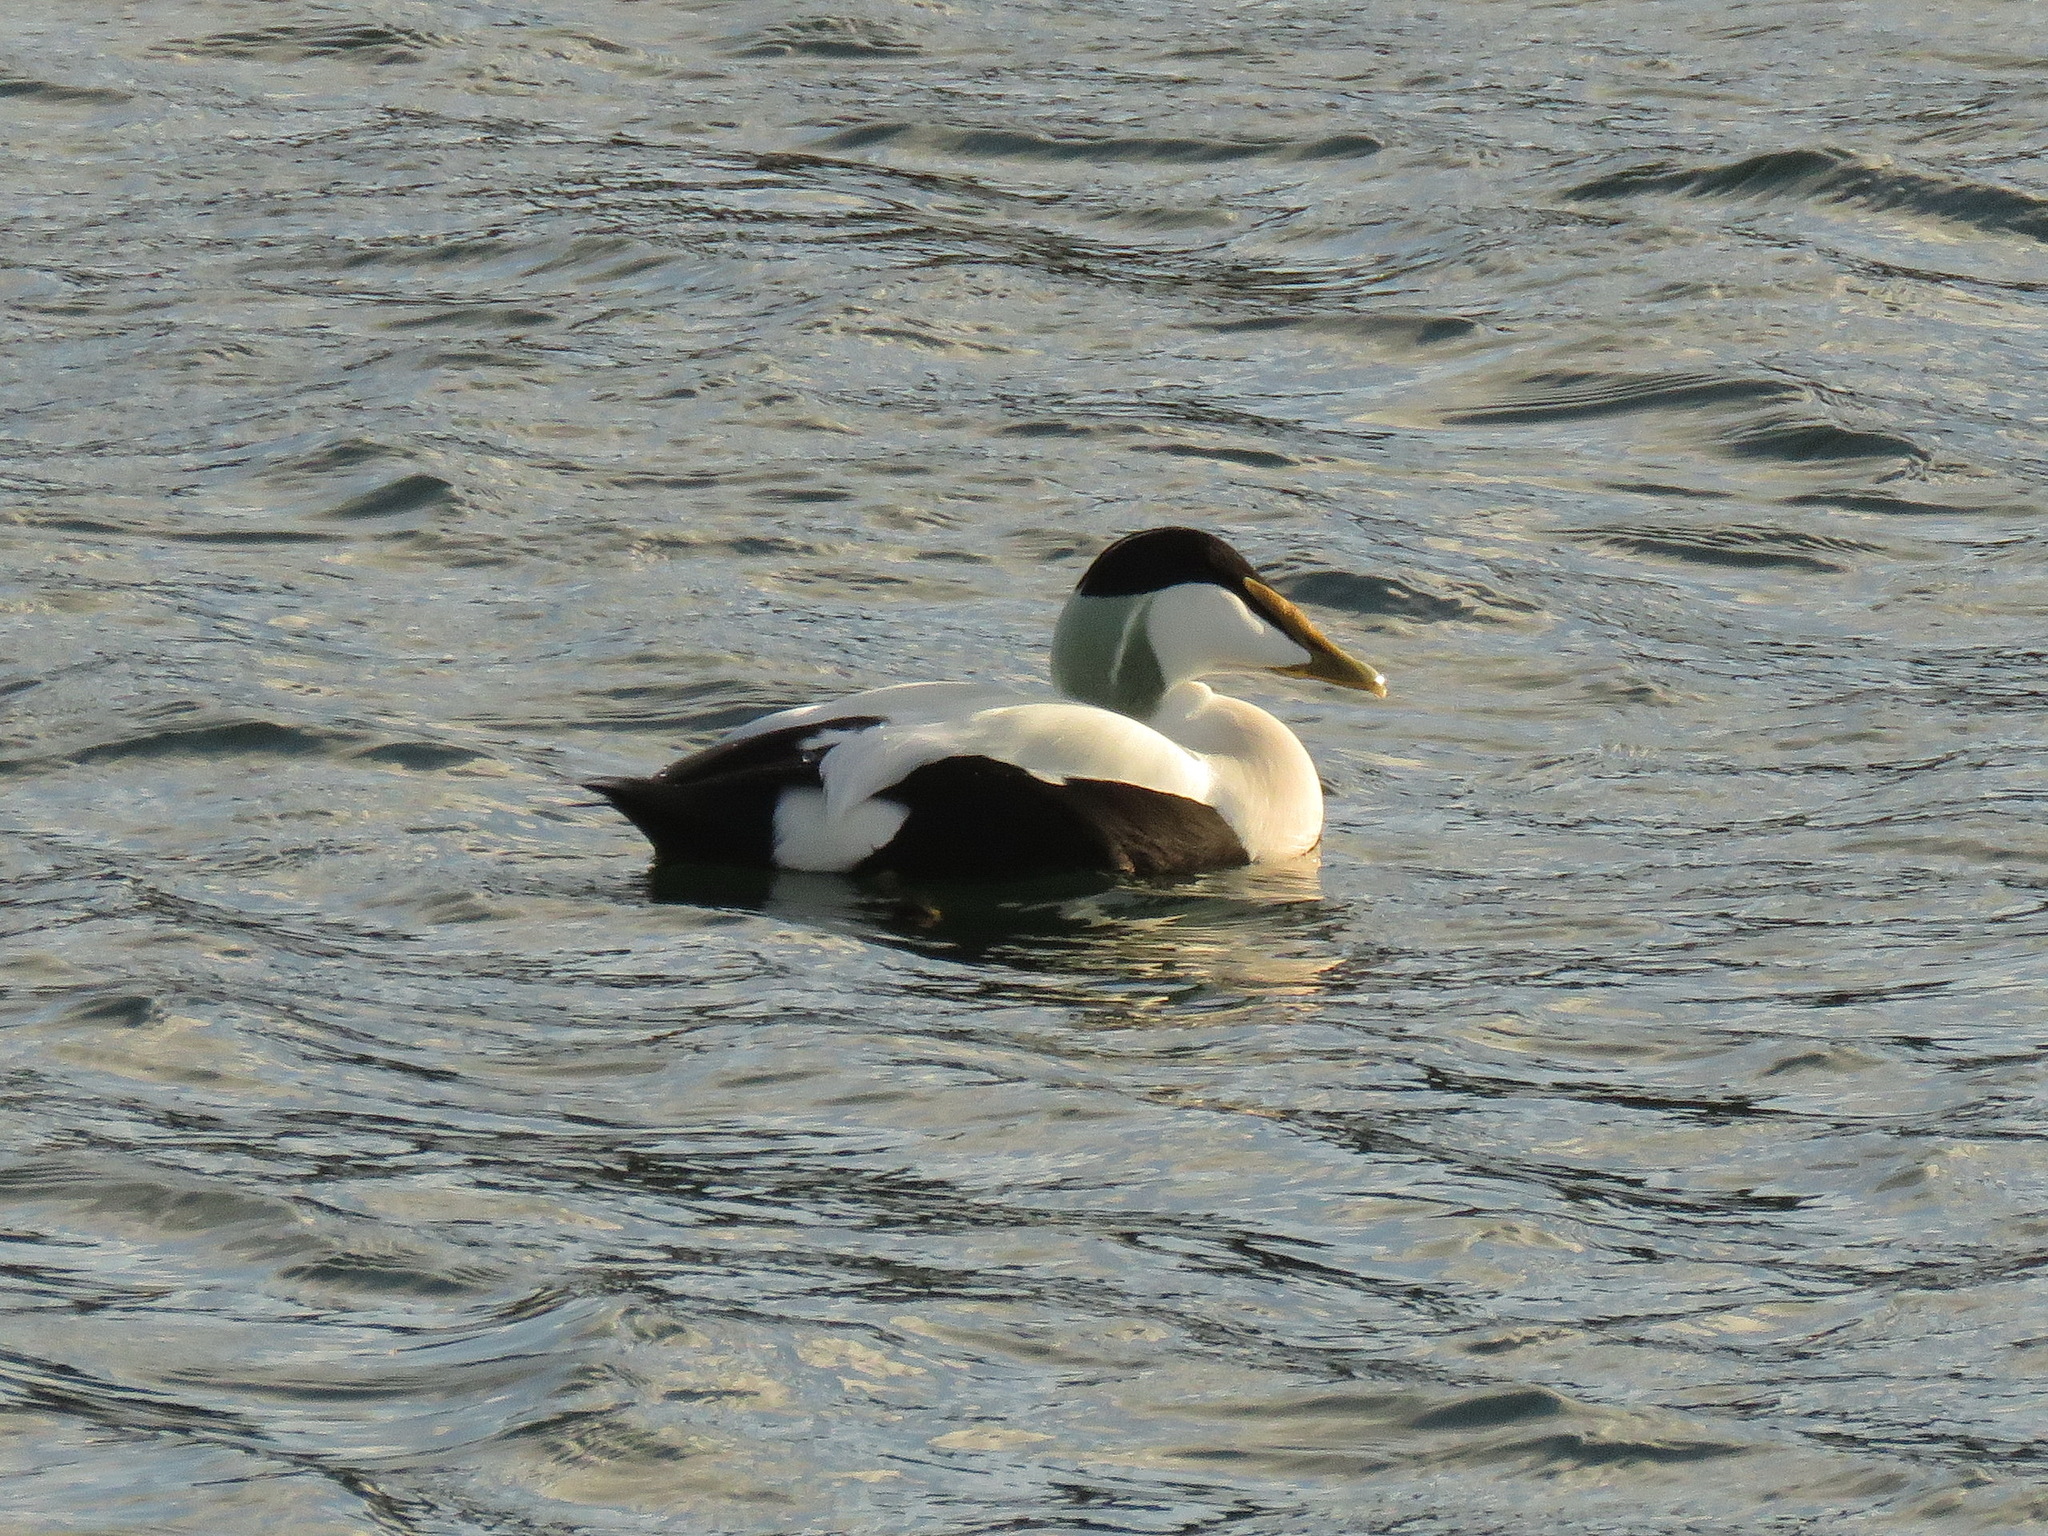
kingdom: Animalia
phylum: Chordata
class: Aves
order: Anseriformes
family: Anatidae
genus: Somateria
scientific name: Somateria mollissima
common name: Common eider
